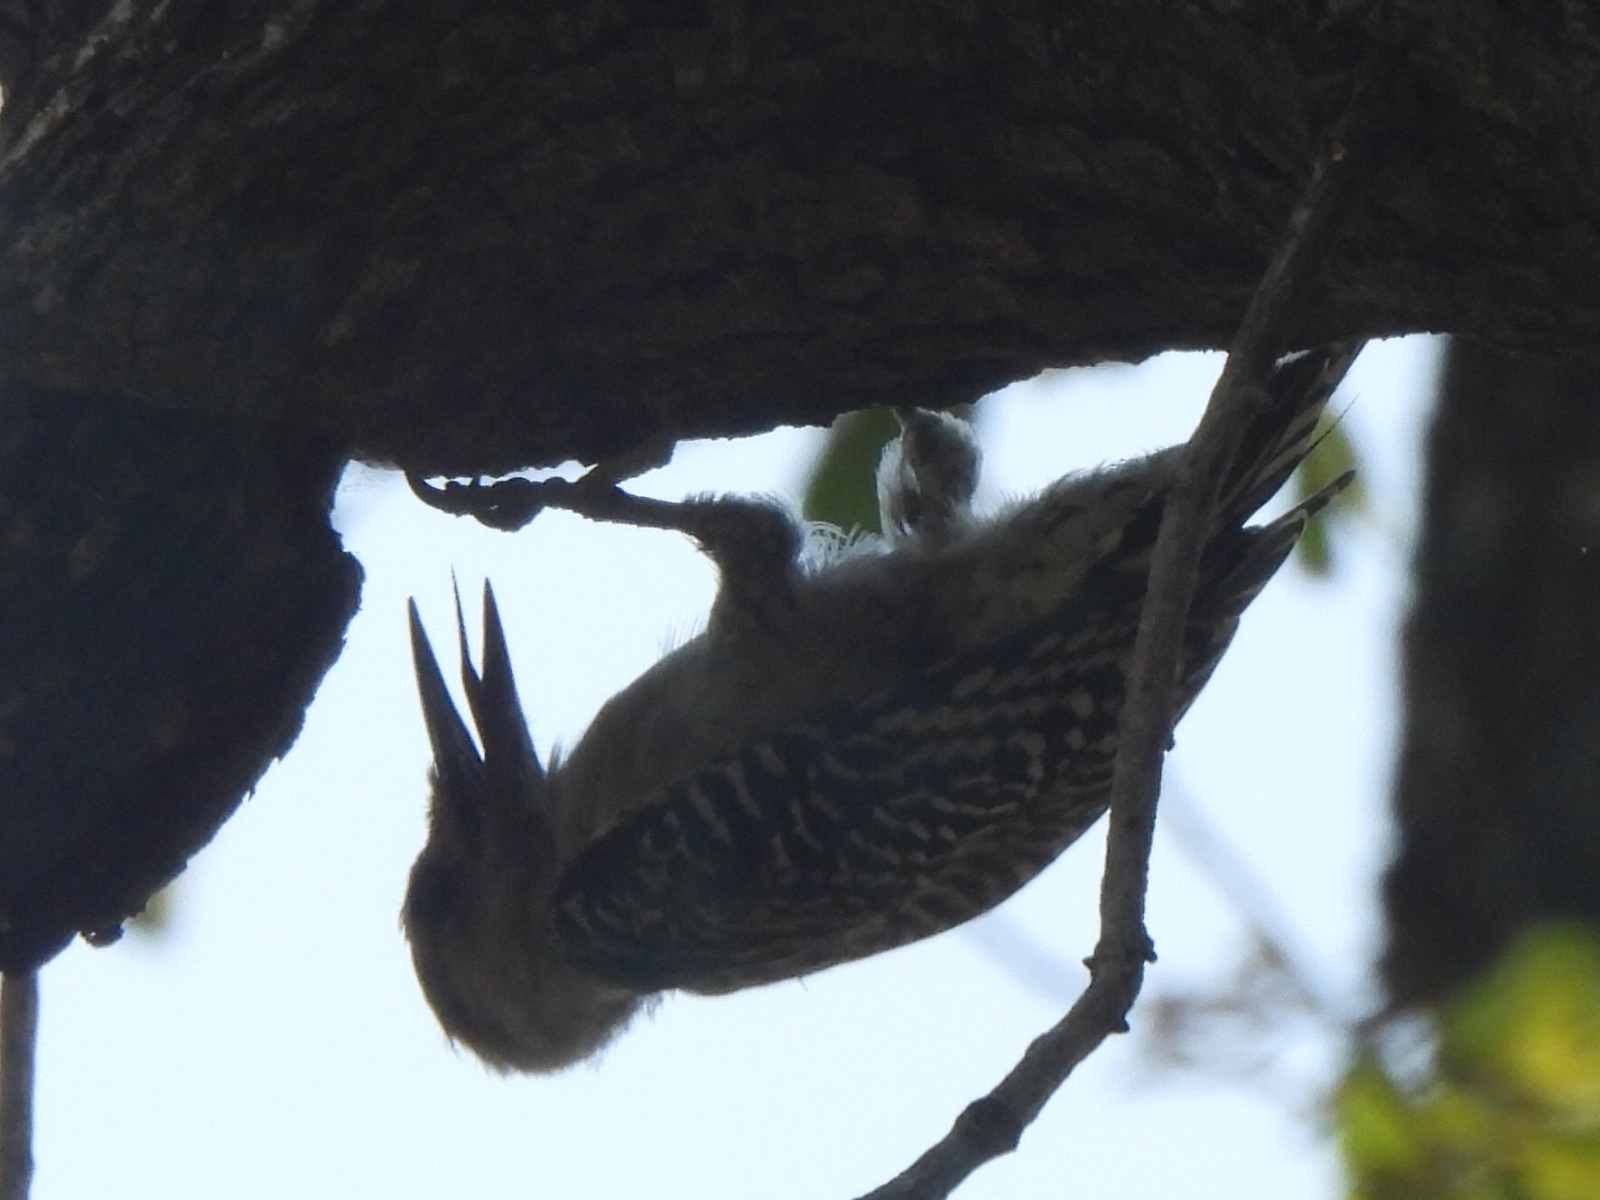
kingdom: Animalia
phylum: Chordata
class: Aves
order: Piciformes
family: Picidae
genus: Melanerpes
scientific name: Melanerpes carolinus
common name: Red-bellied woodpecker
